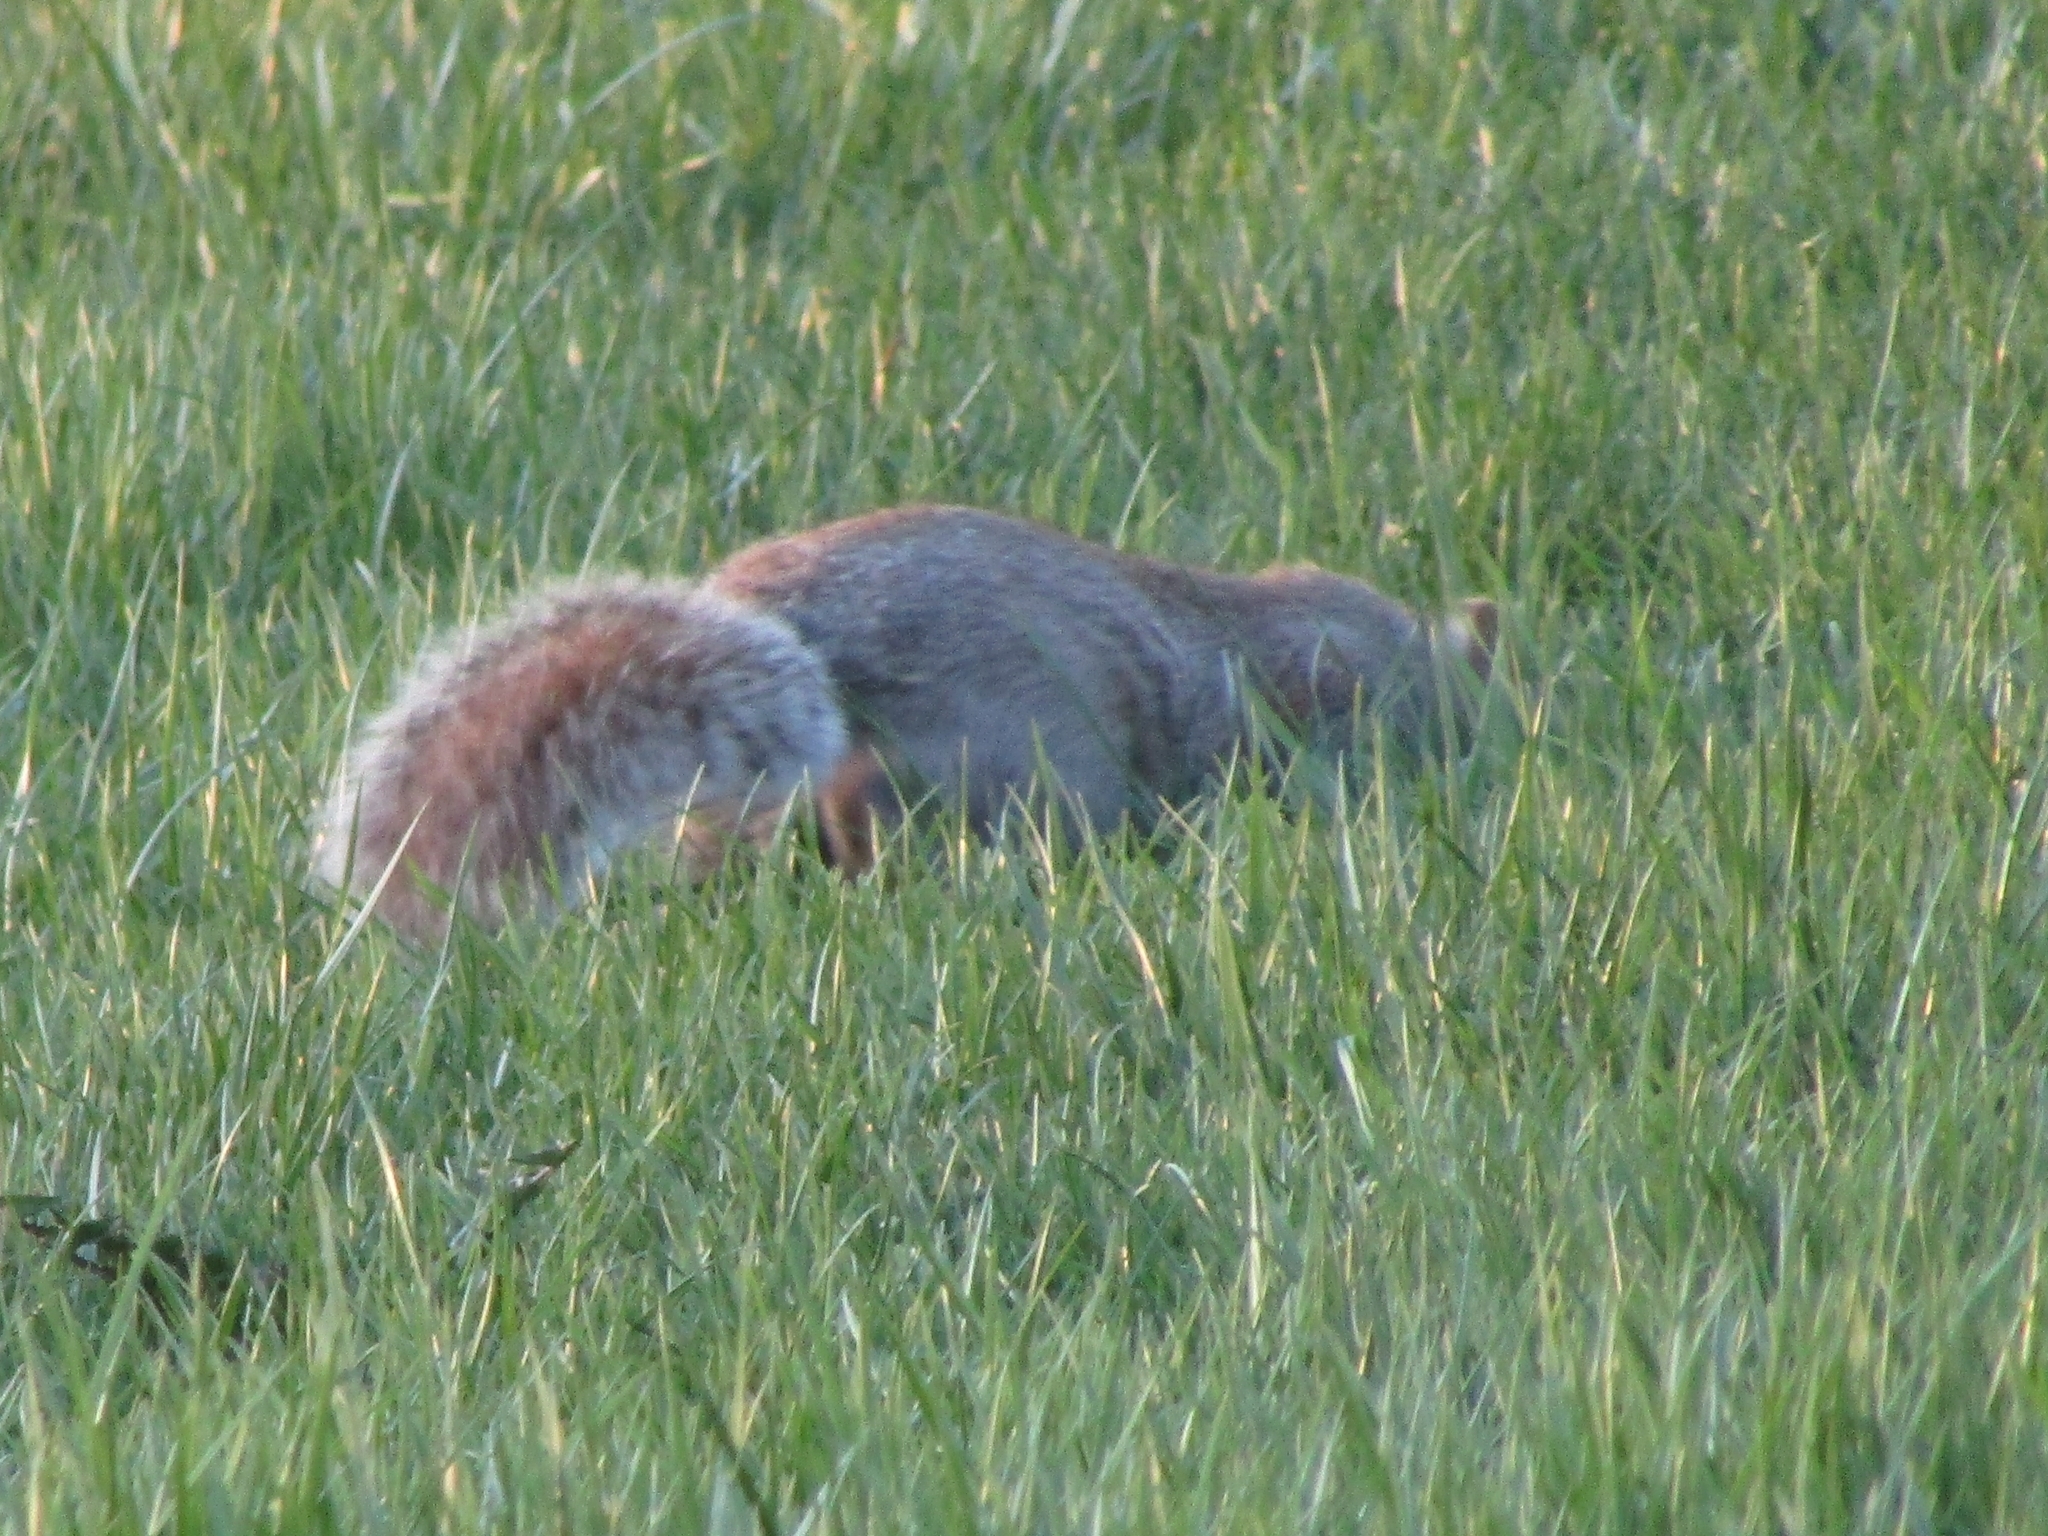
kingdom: Animalia
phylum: Chordata
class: Mammalia
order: Rodentia
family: Sciuridae
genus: Sciurus
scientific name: Sciurus carolinensis
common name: Eastern gray squirrel
